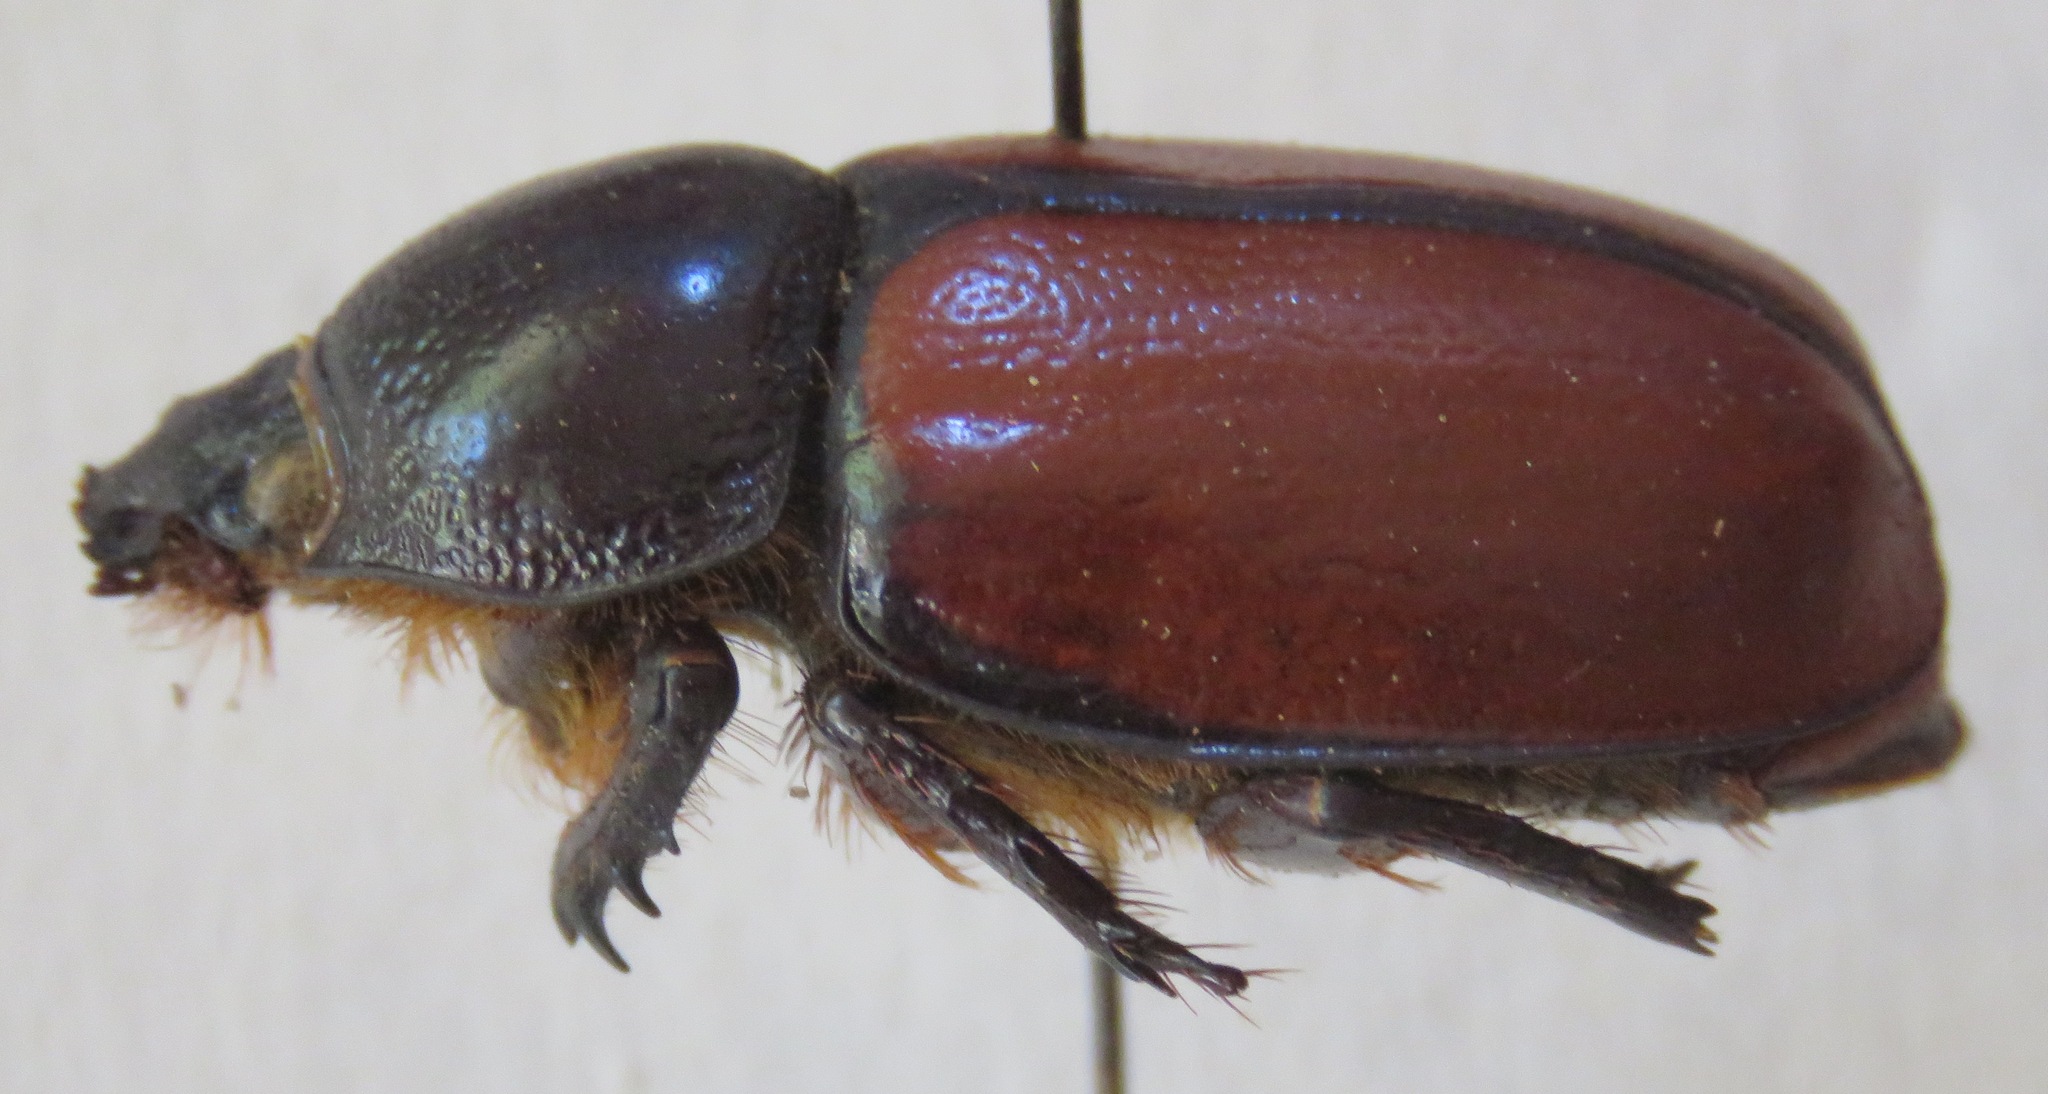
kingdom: Animalia
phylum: Arthropoda
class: Insecta
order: Coleoptera
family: Scarabaeidae
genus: Golofa
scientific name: Golofa pusilla
